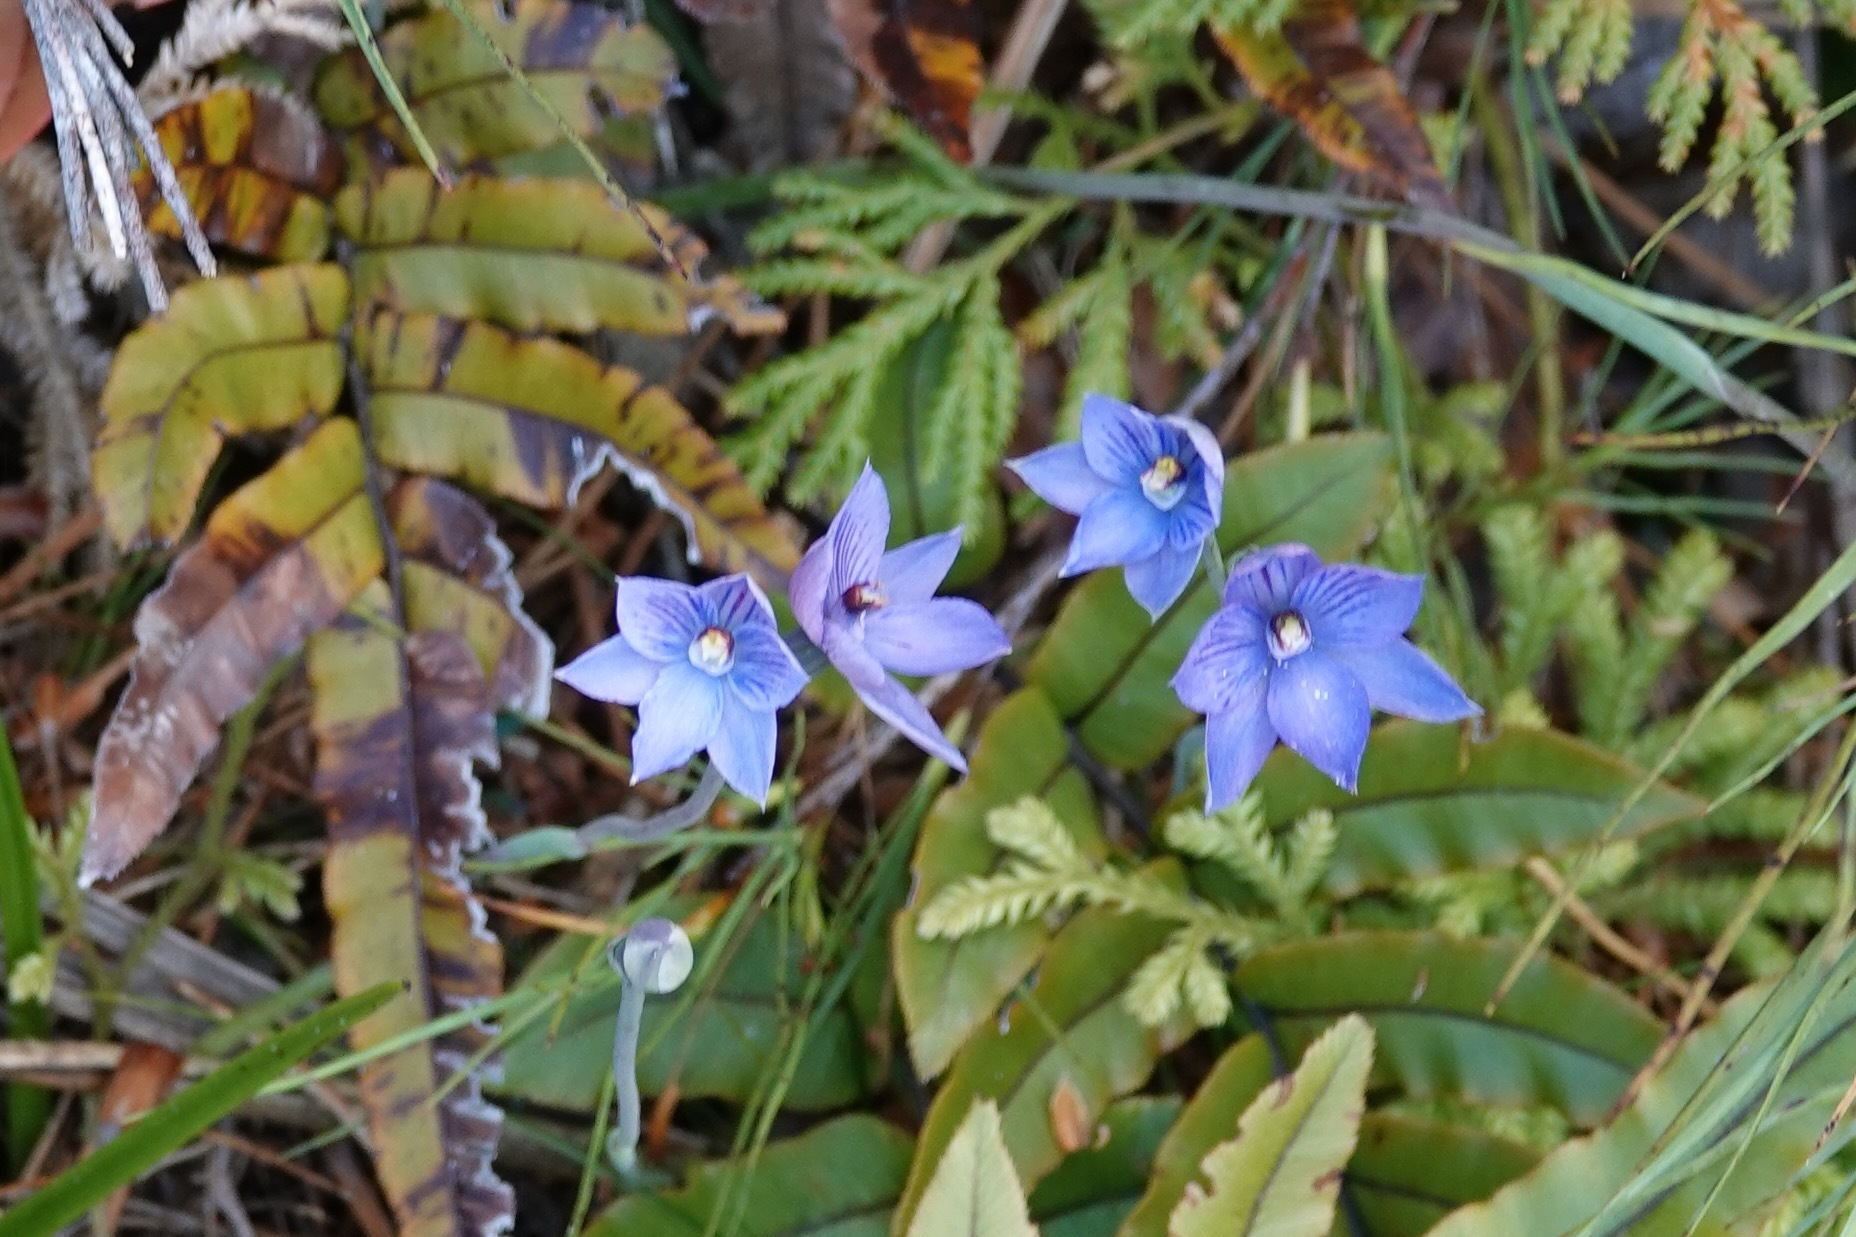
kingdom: Plantae
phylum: Tracheophyta
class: Liliopsida
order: Asparagales
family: Orchidaceae
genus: Thelymitra
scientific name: Thelymitra pulchella
